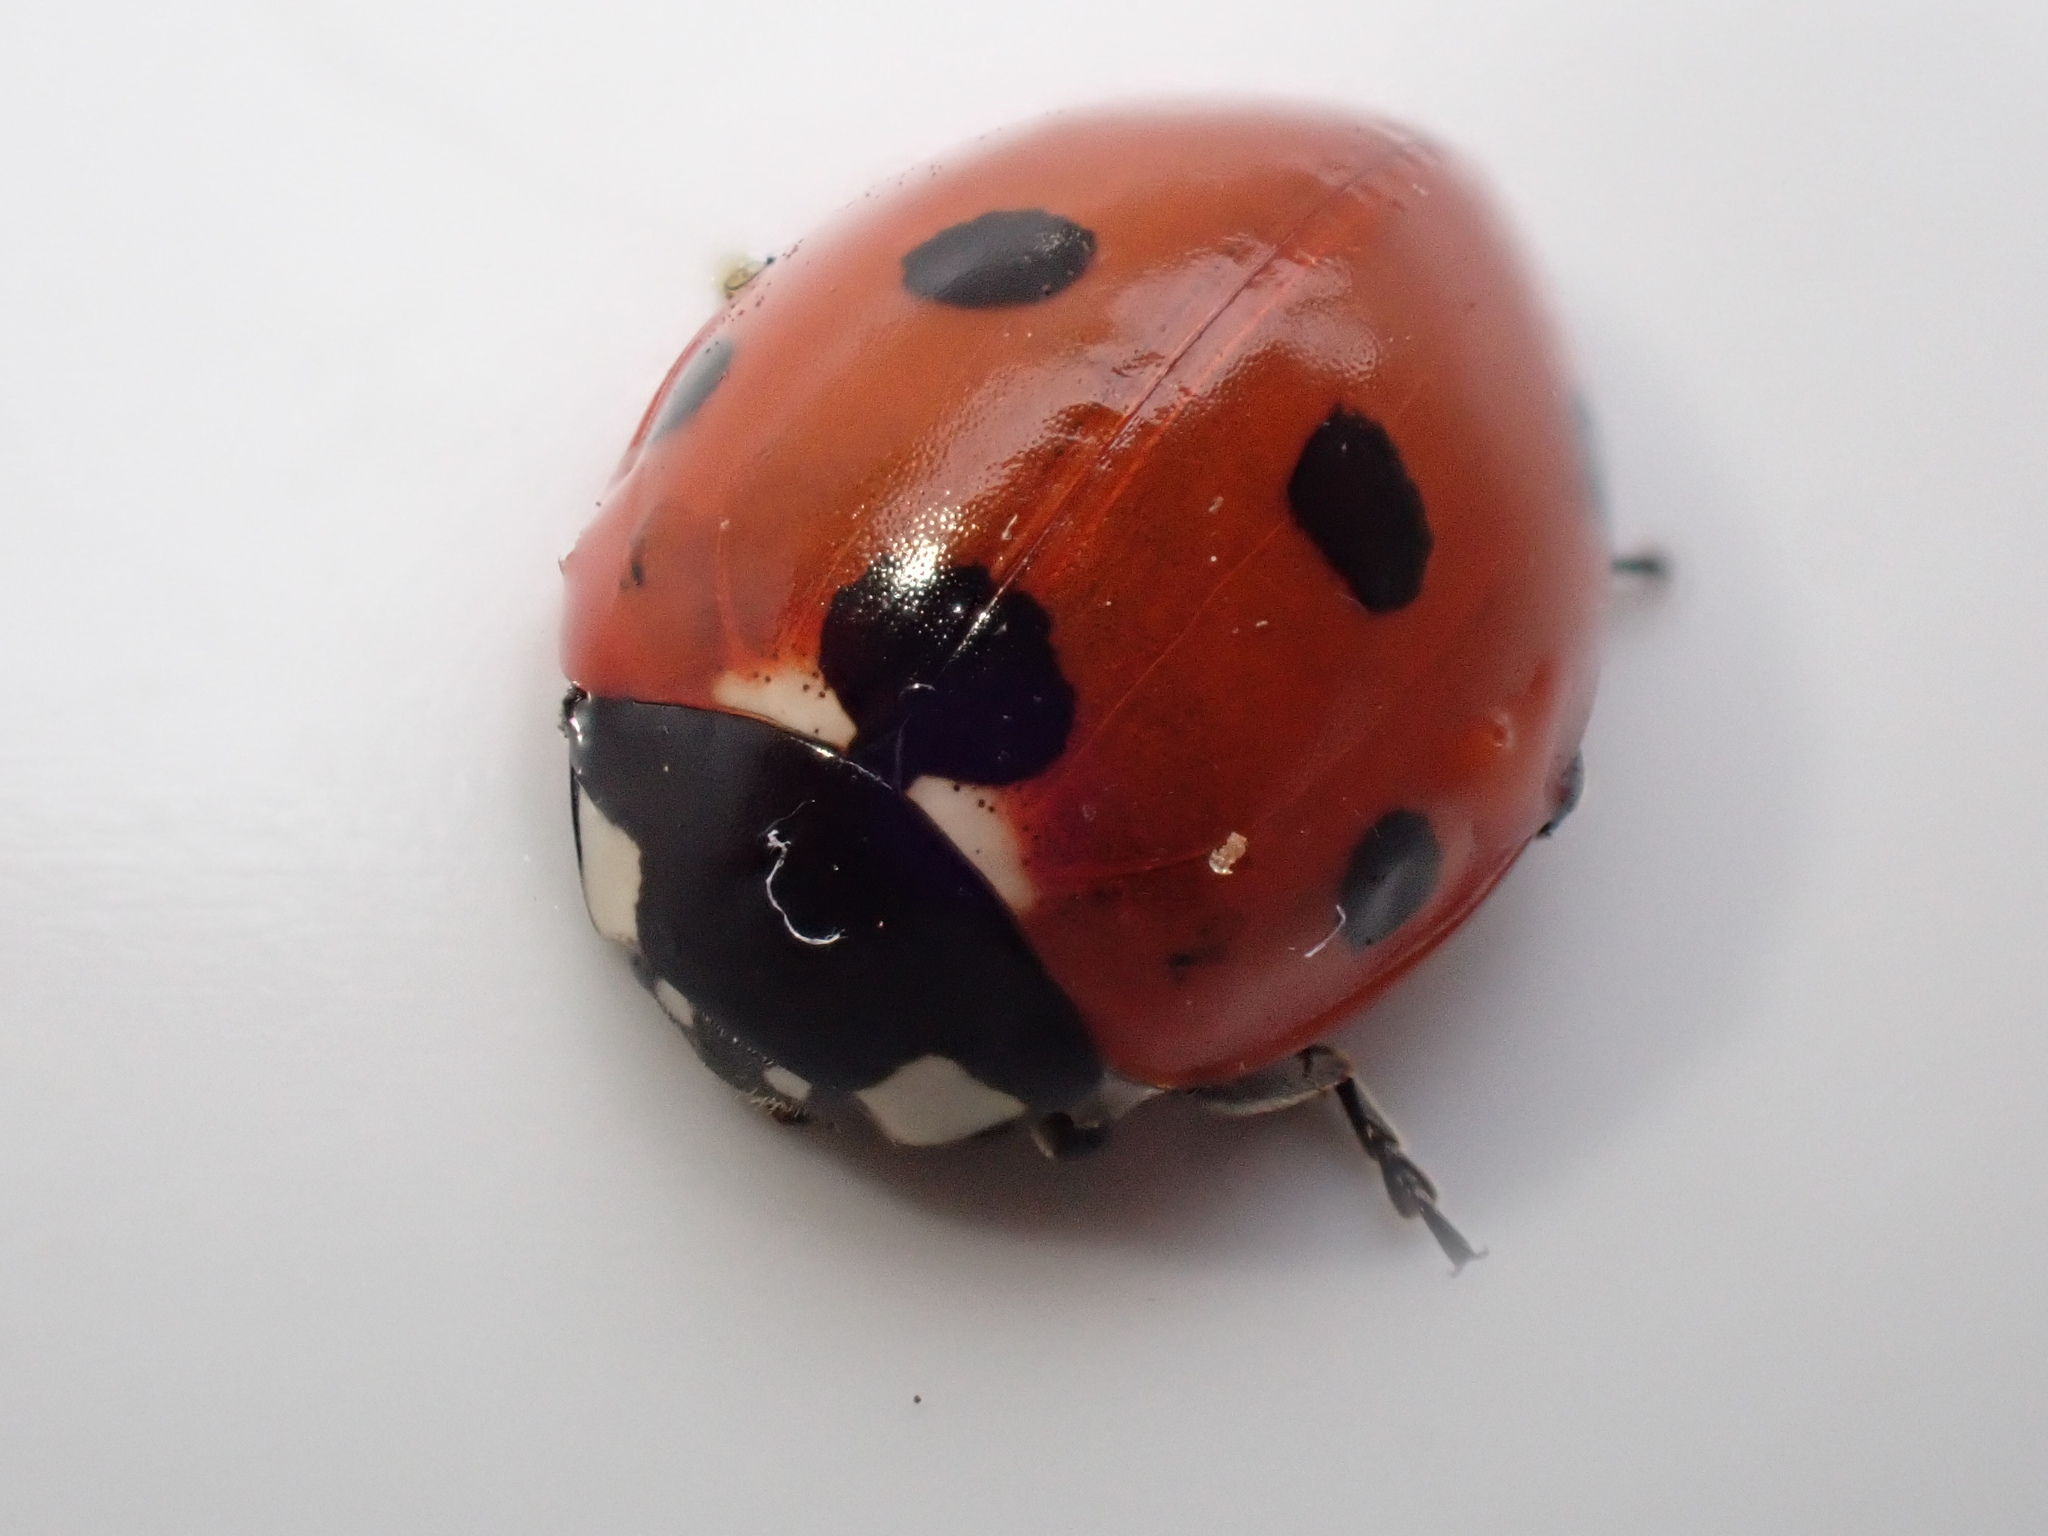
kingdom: Animalia
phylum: Arthropoda
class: Insecta
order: Coleoptera
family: Coccinellidae
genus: Coccinella
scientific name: Coccinella septempunctata
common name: Sevenspotted lady beetle
